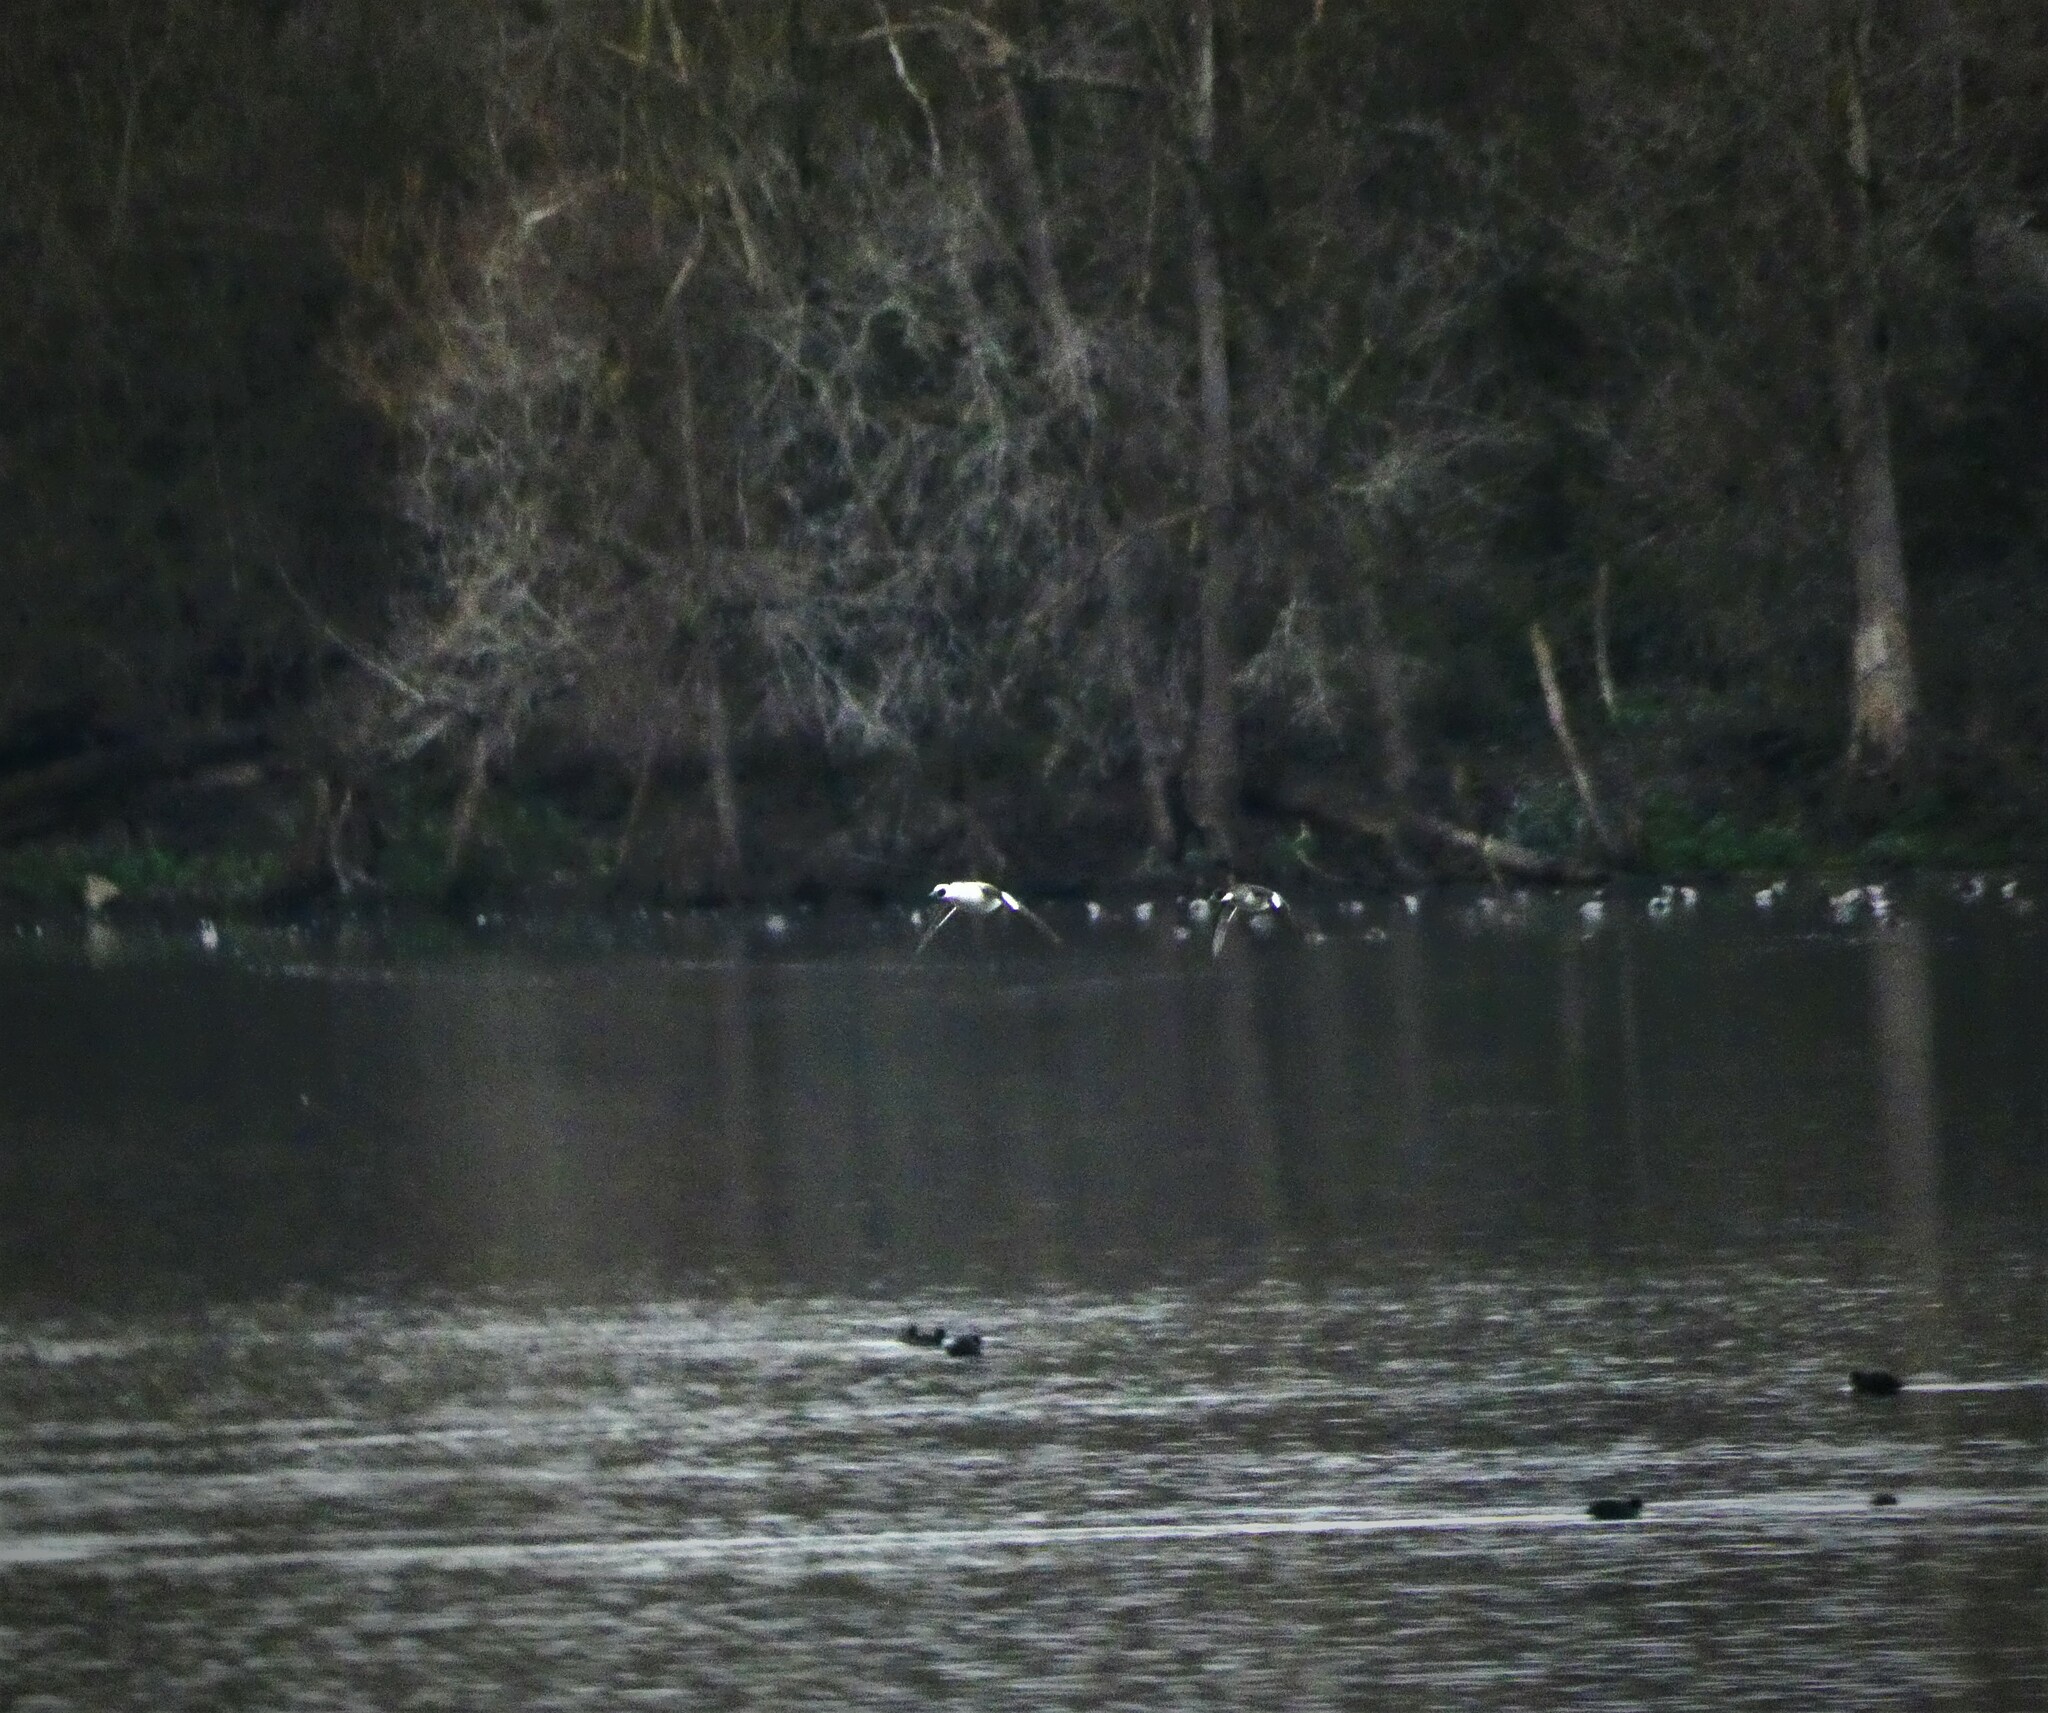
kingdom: Animalia
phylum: Chordata
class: Aves
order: Anseriformes
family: Anatidae
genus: Mergellus
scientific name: Mergellus albellus
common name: Smew
